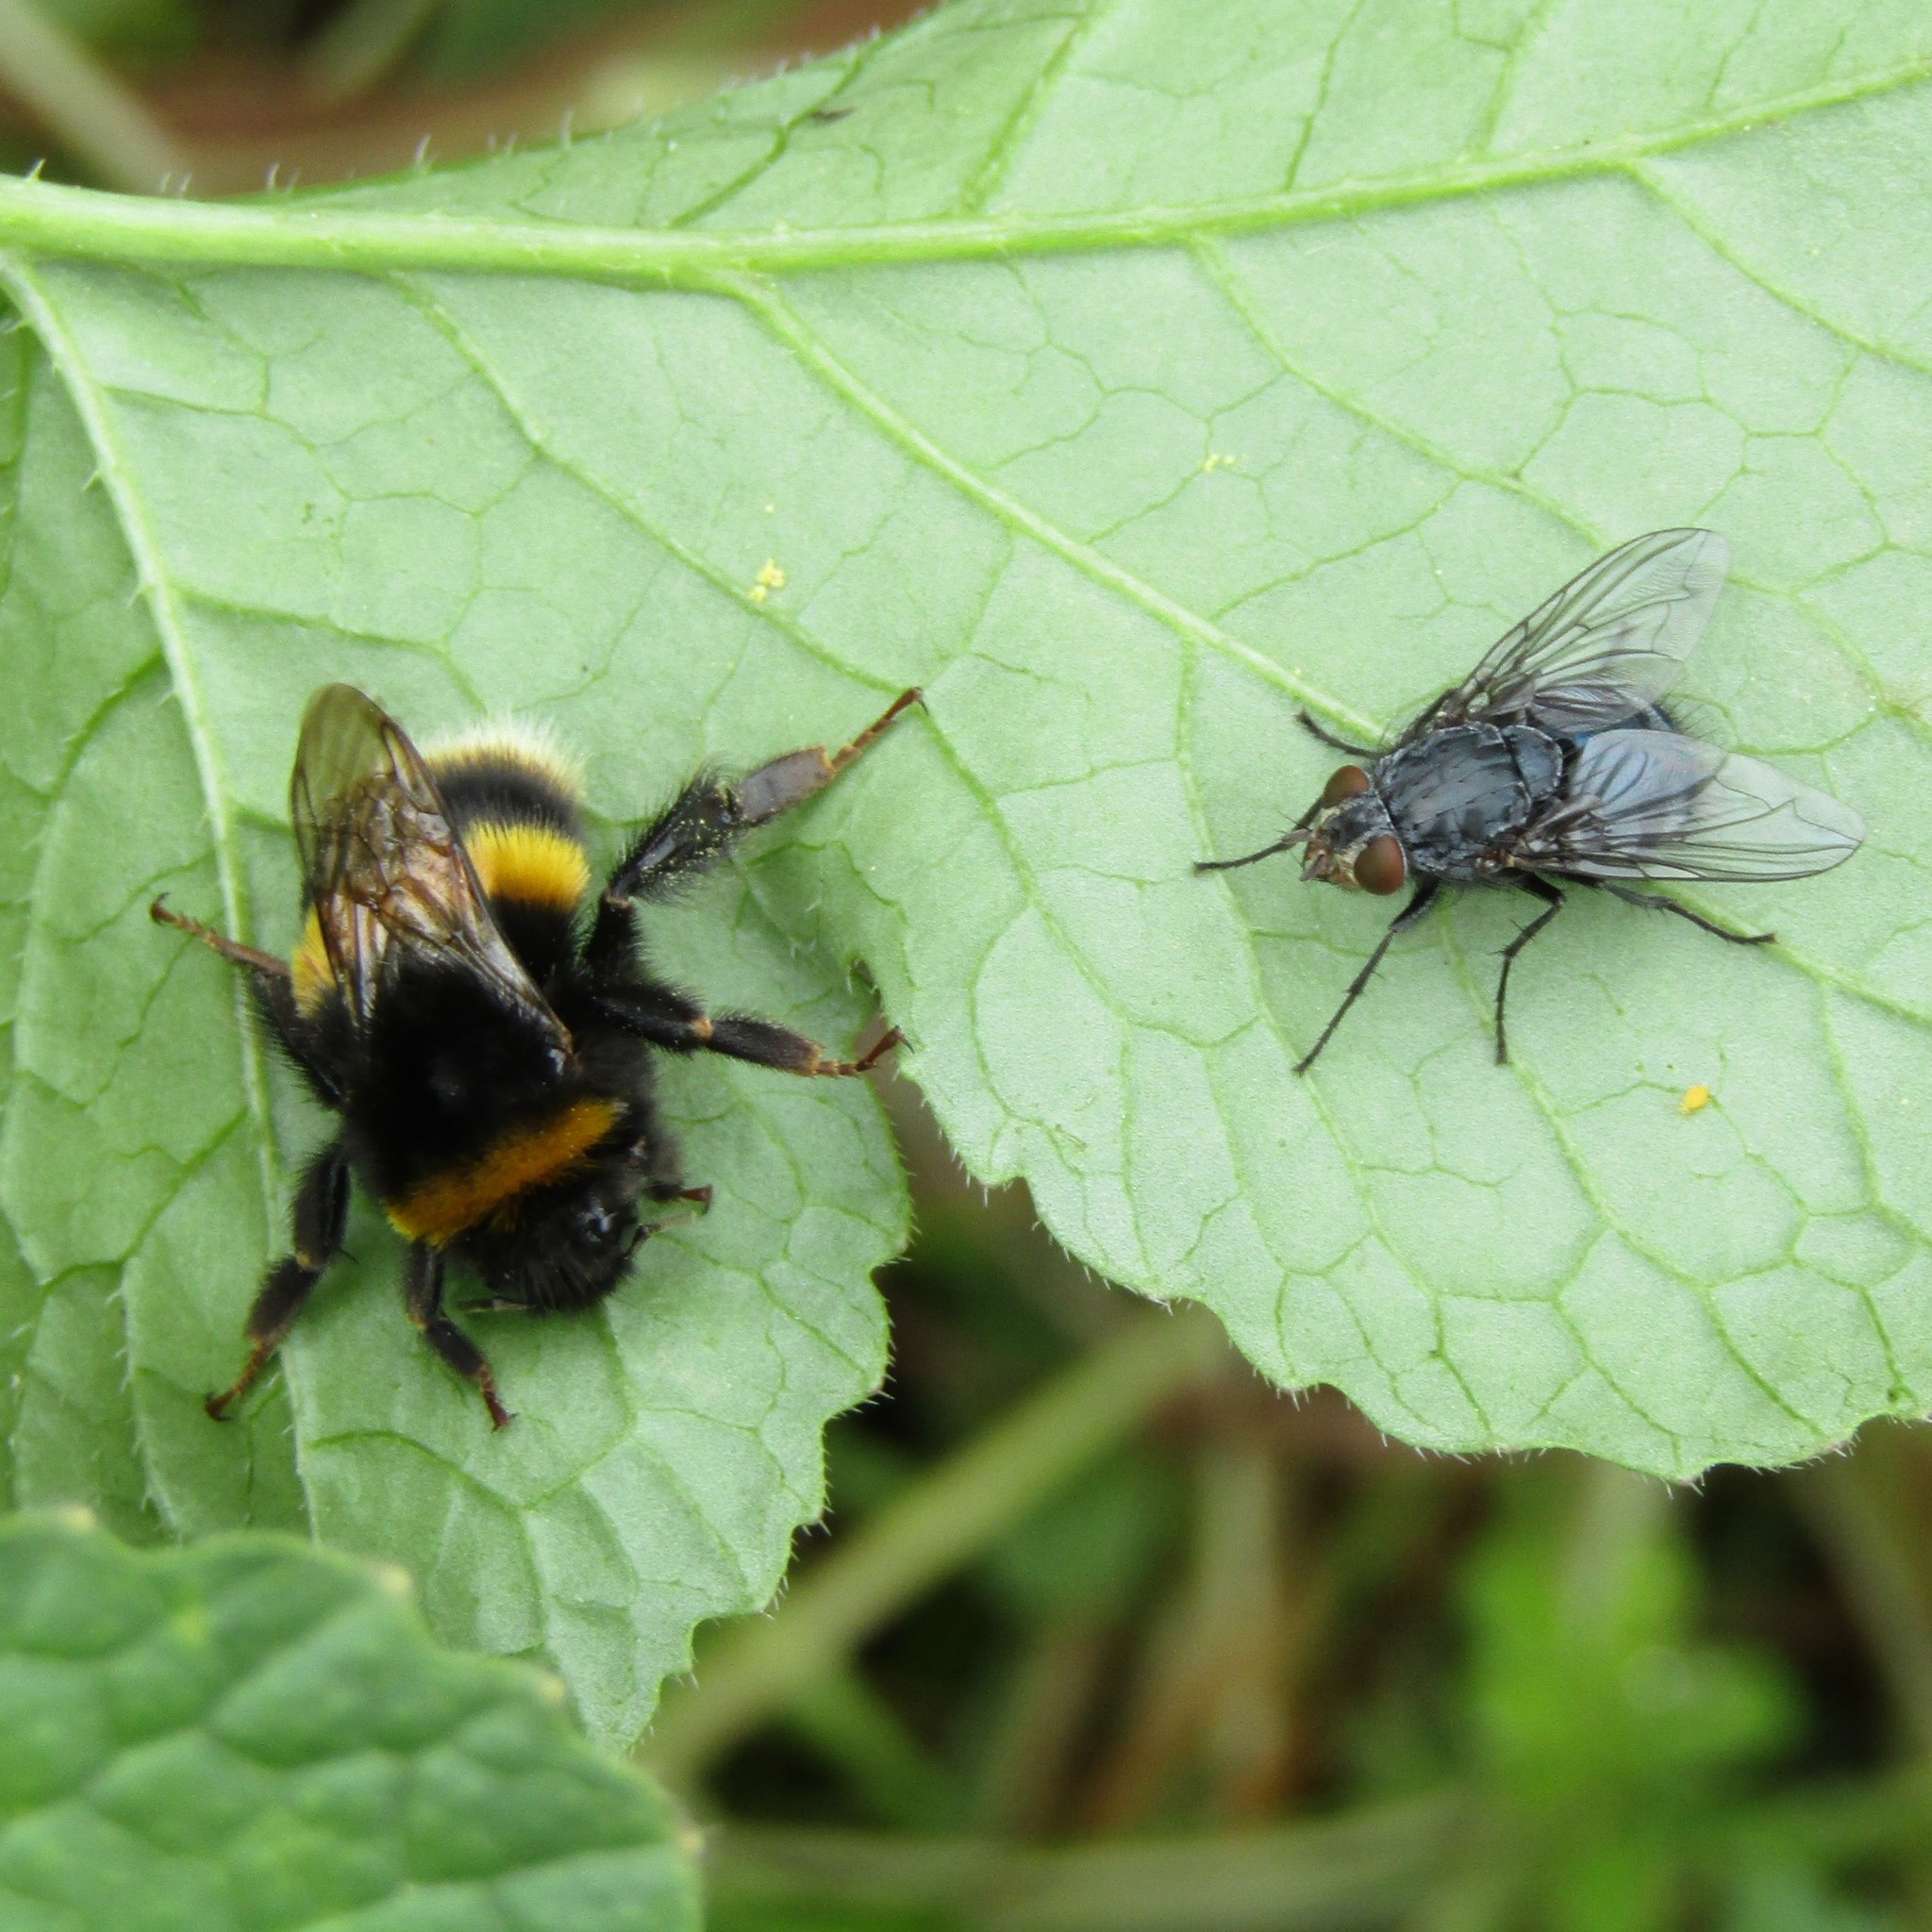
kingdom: Animalia
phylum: Arthropoda
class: Insecta
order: Diptera
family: Calliphoridae
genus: Calliphora
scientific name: Calliphora vicina
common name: Common blow flie
